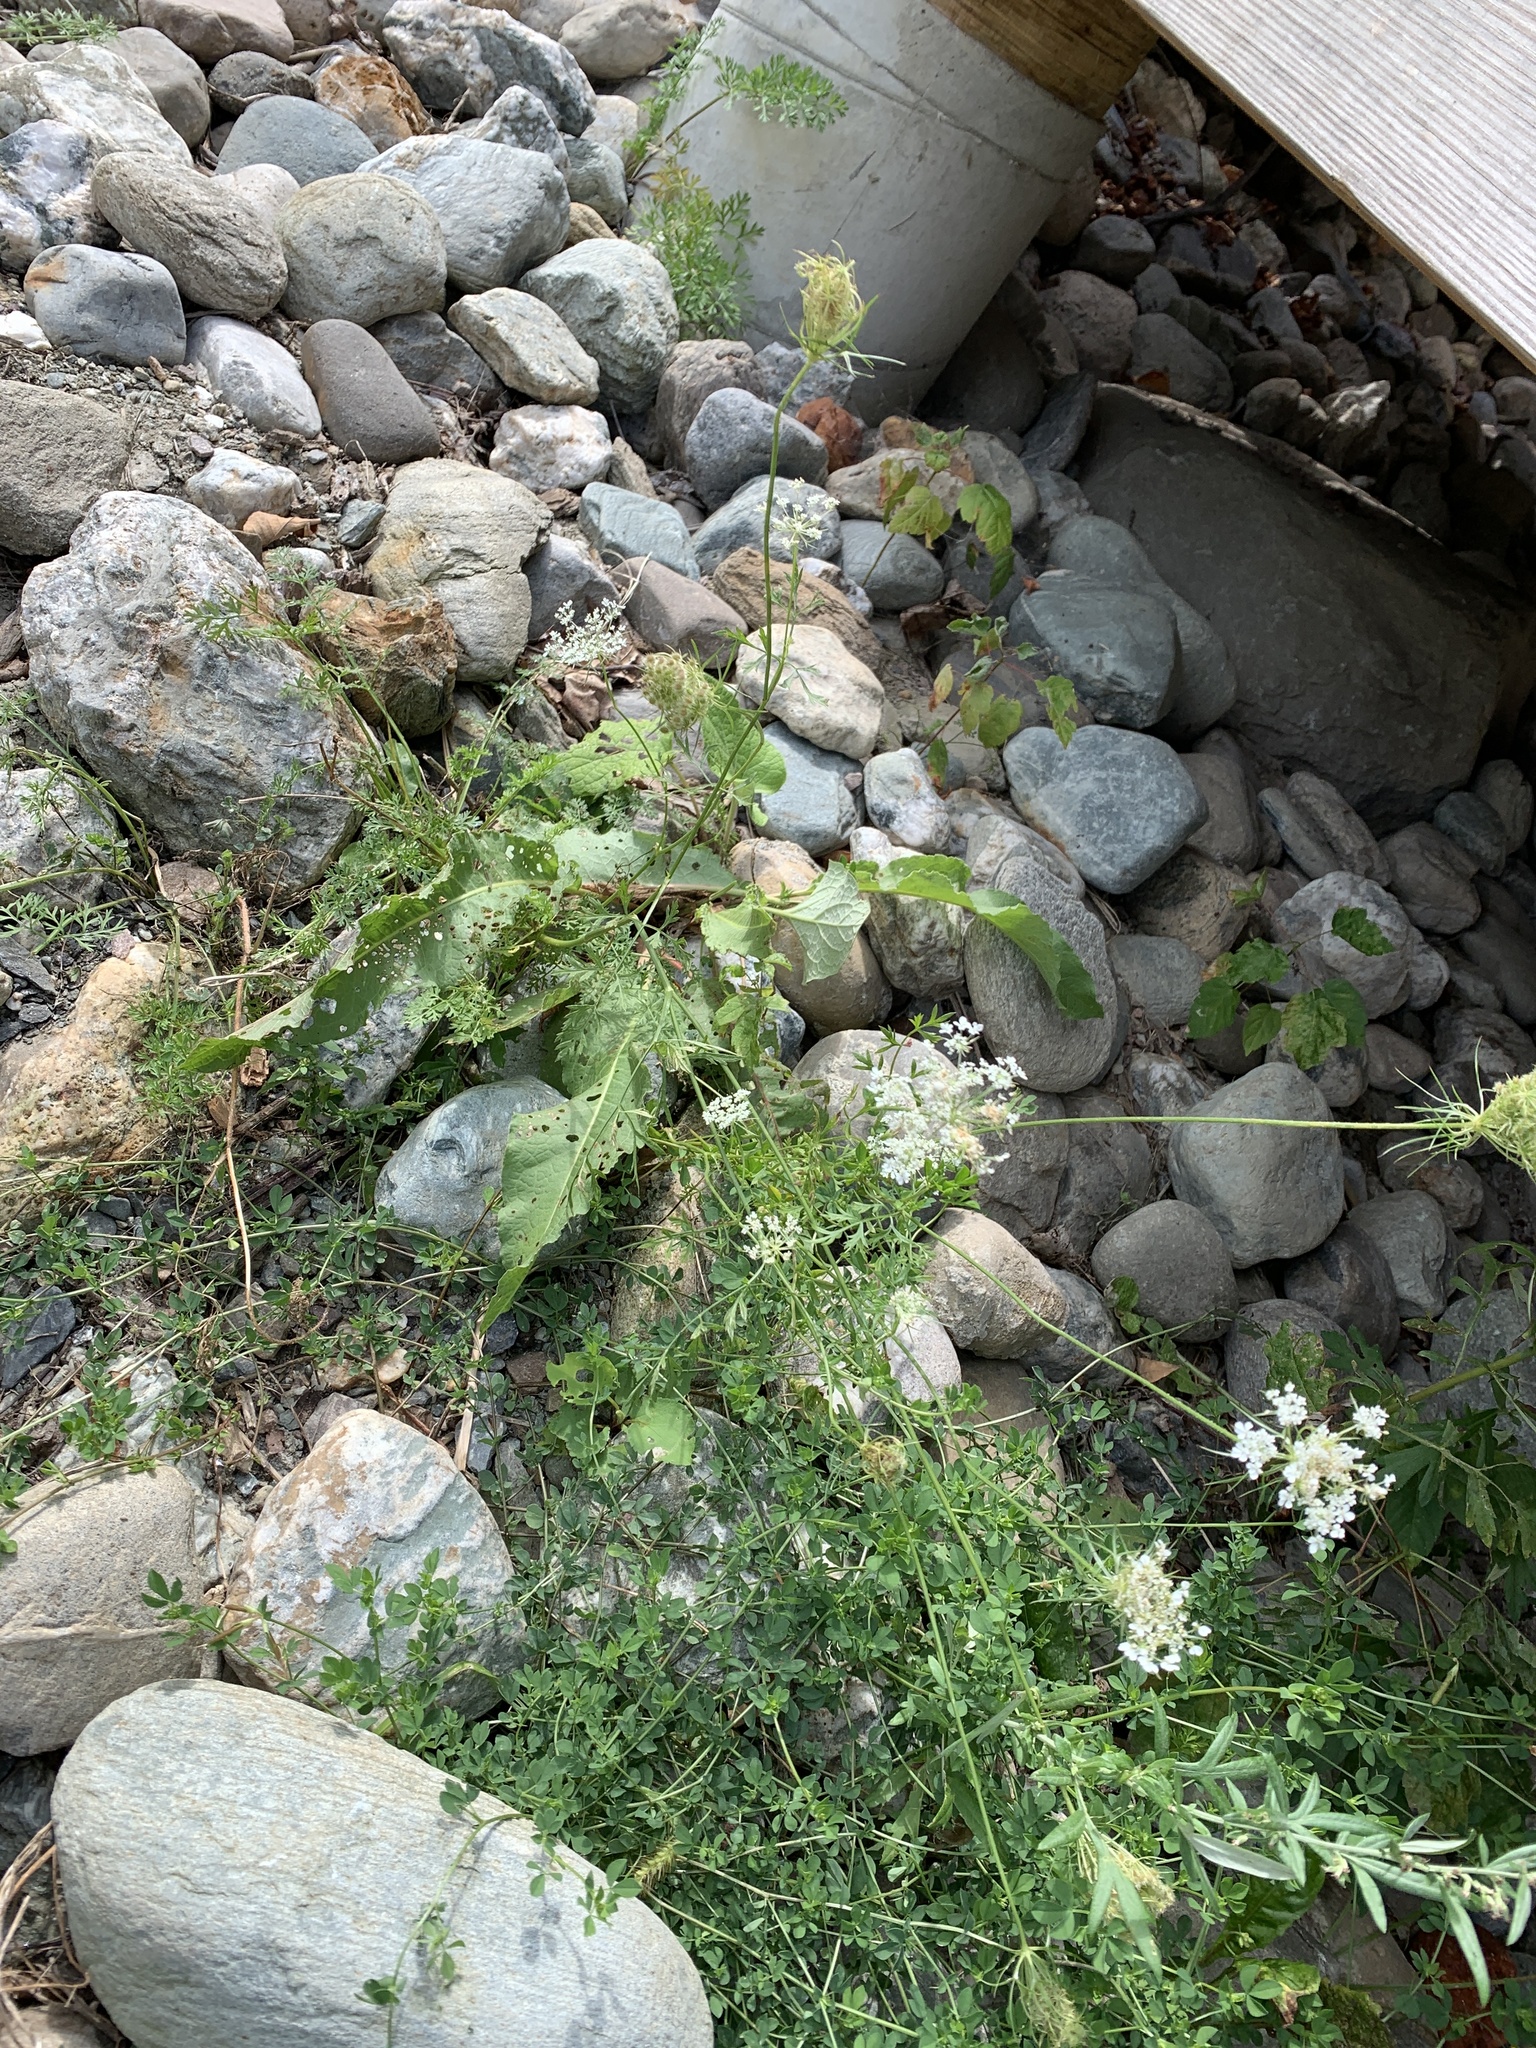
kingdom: Plantae
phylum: Tracheophyta
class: Magnoliopsida
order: Apiales
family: Apiaceae
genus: Daucus
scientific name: Daucus carota
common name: Wild carrot
